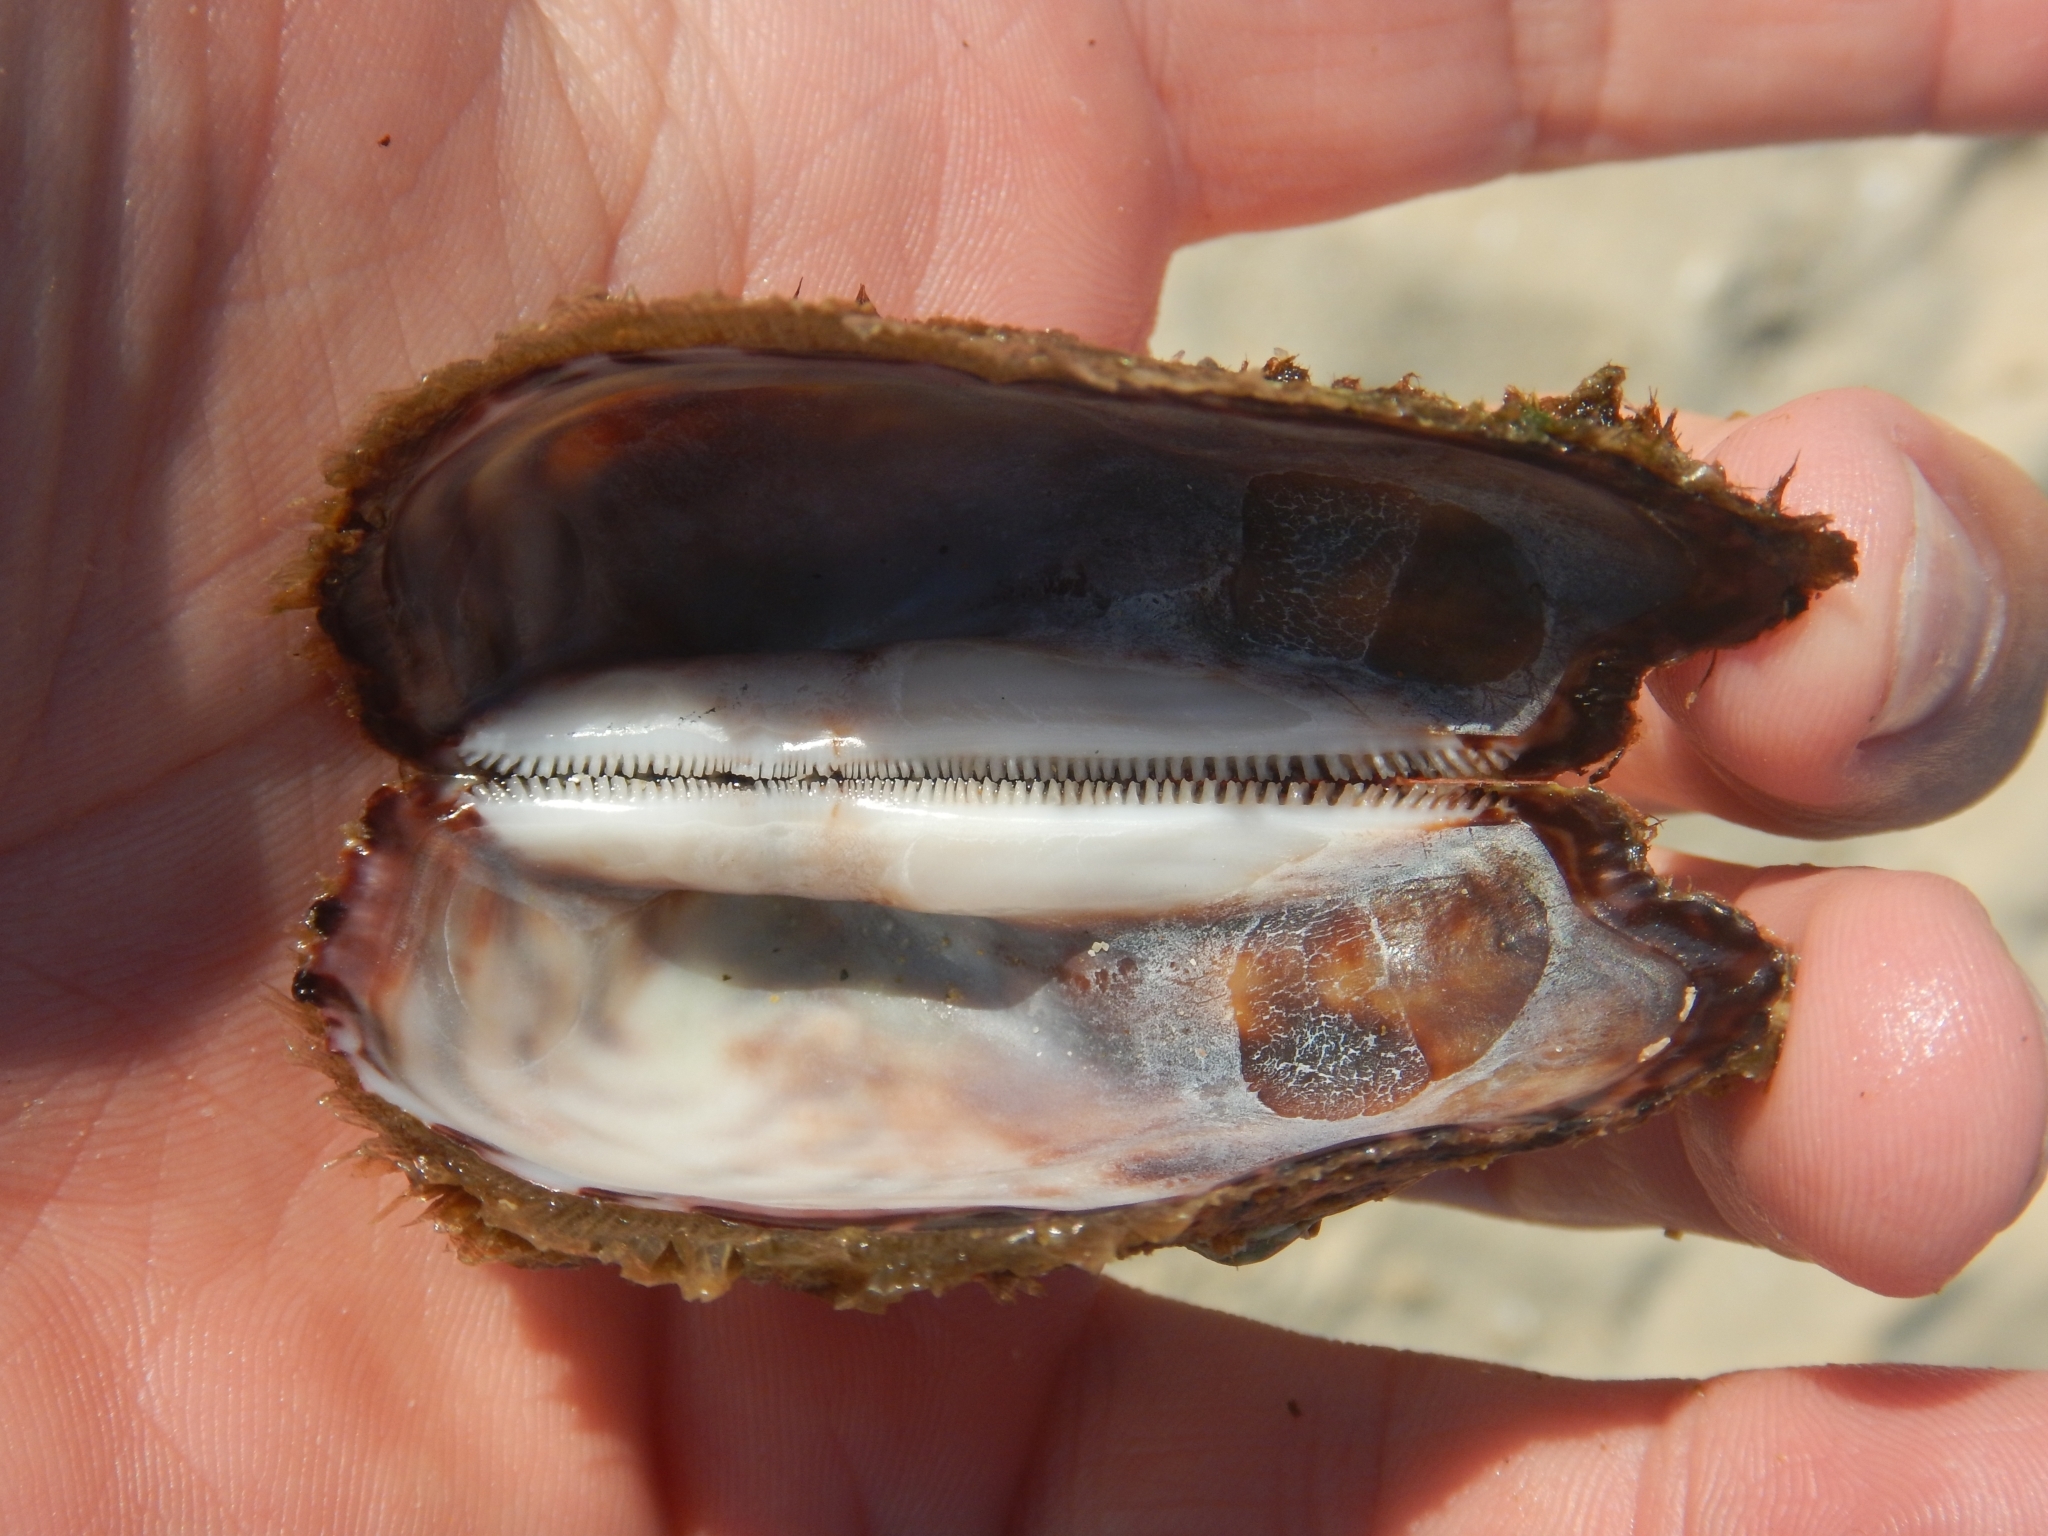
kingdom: Animalia
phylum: Mollusca
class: Bivalvia
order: Arcida
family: Arcidae
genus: Arca
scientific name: Arca noae
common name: Noah's arch
